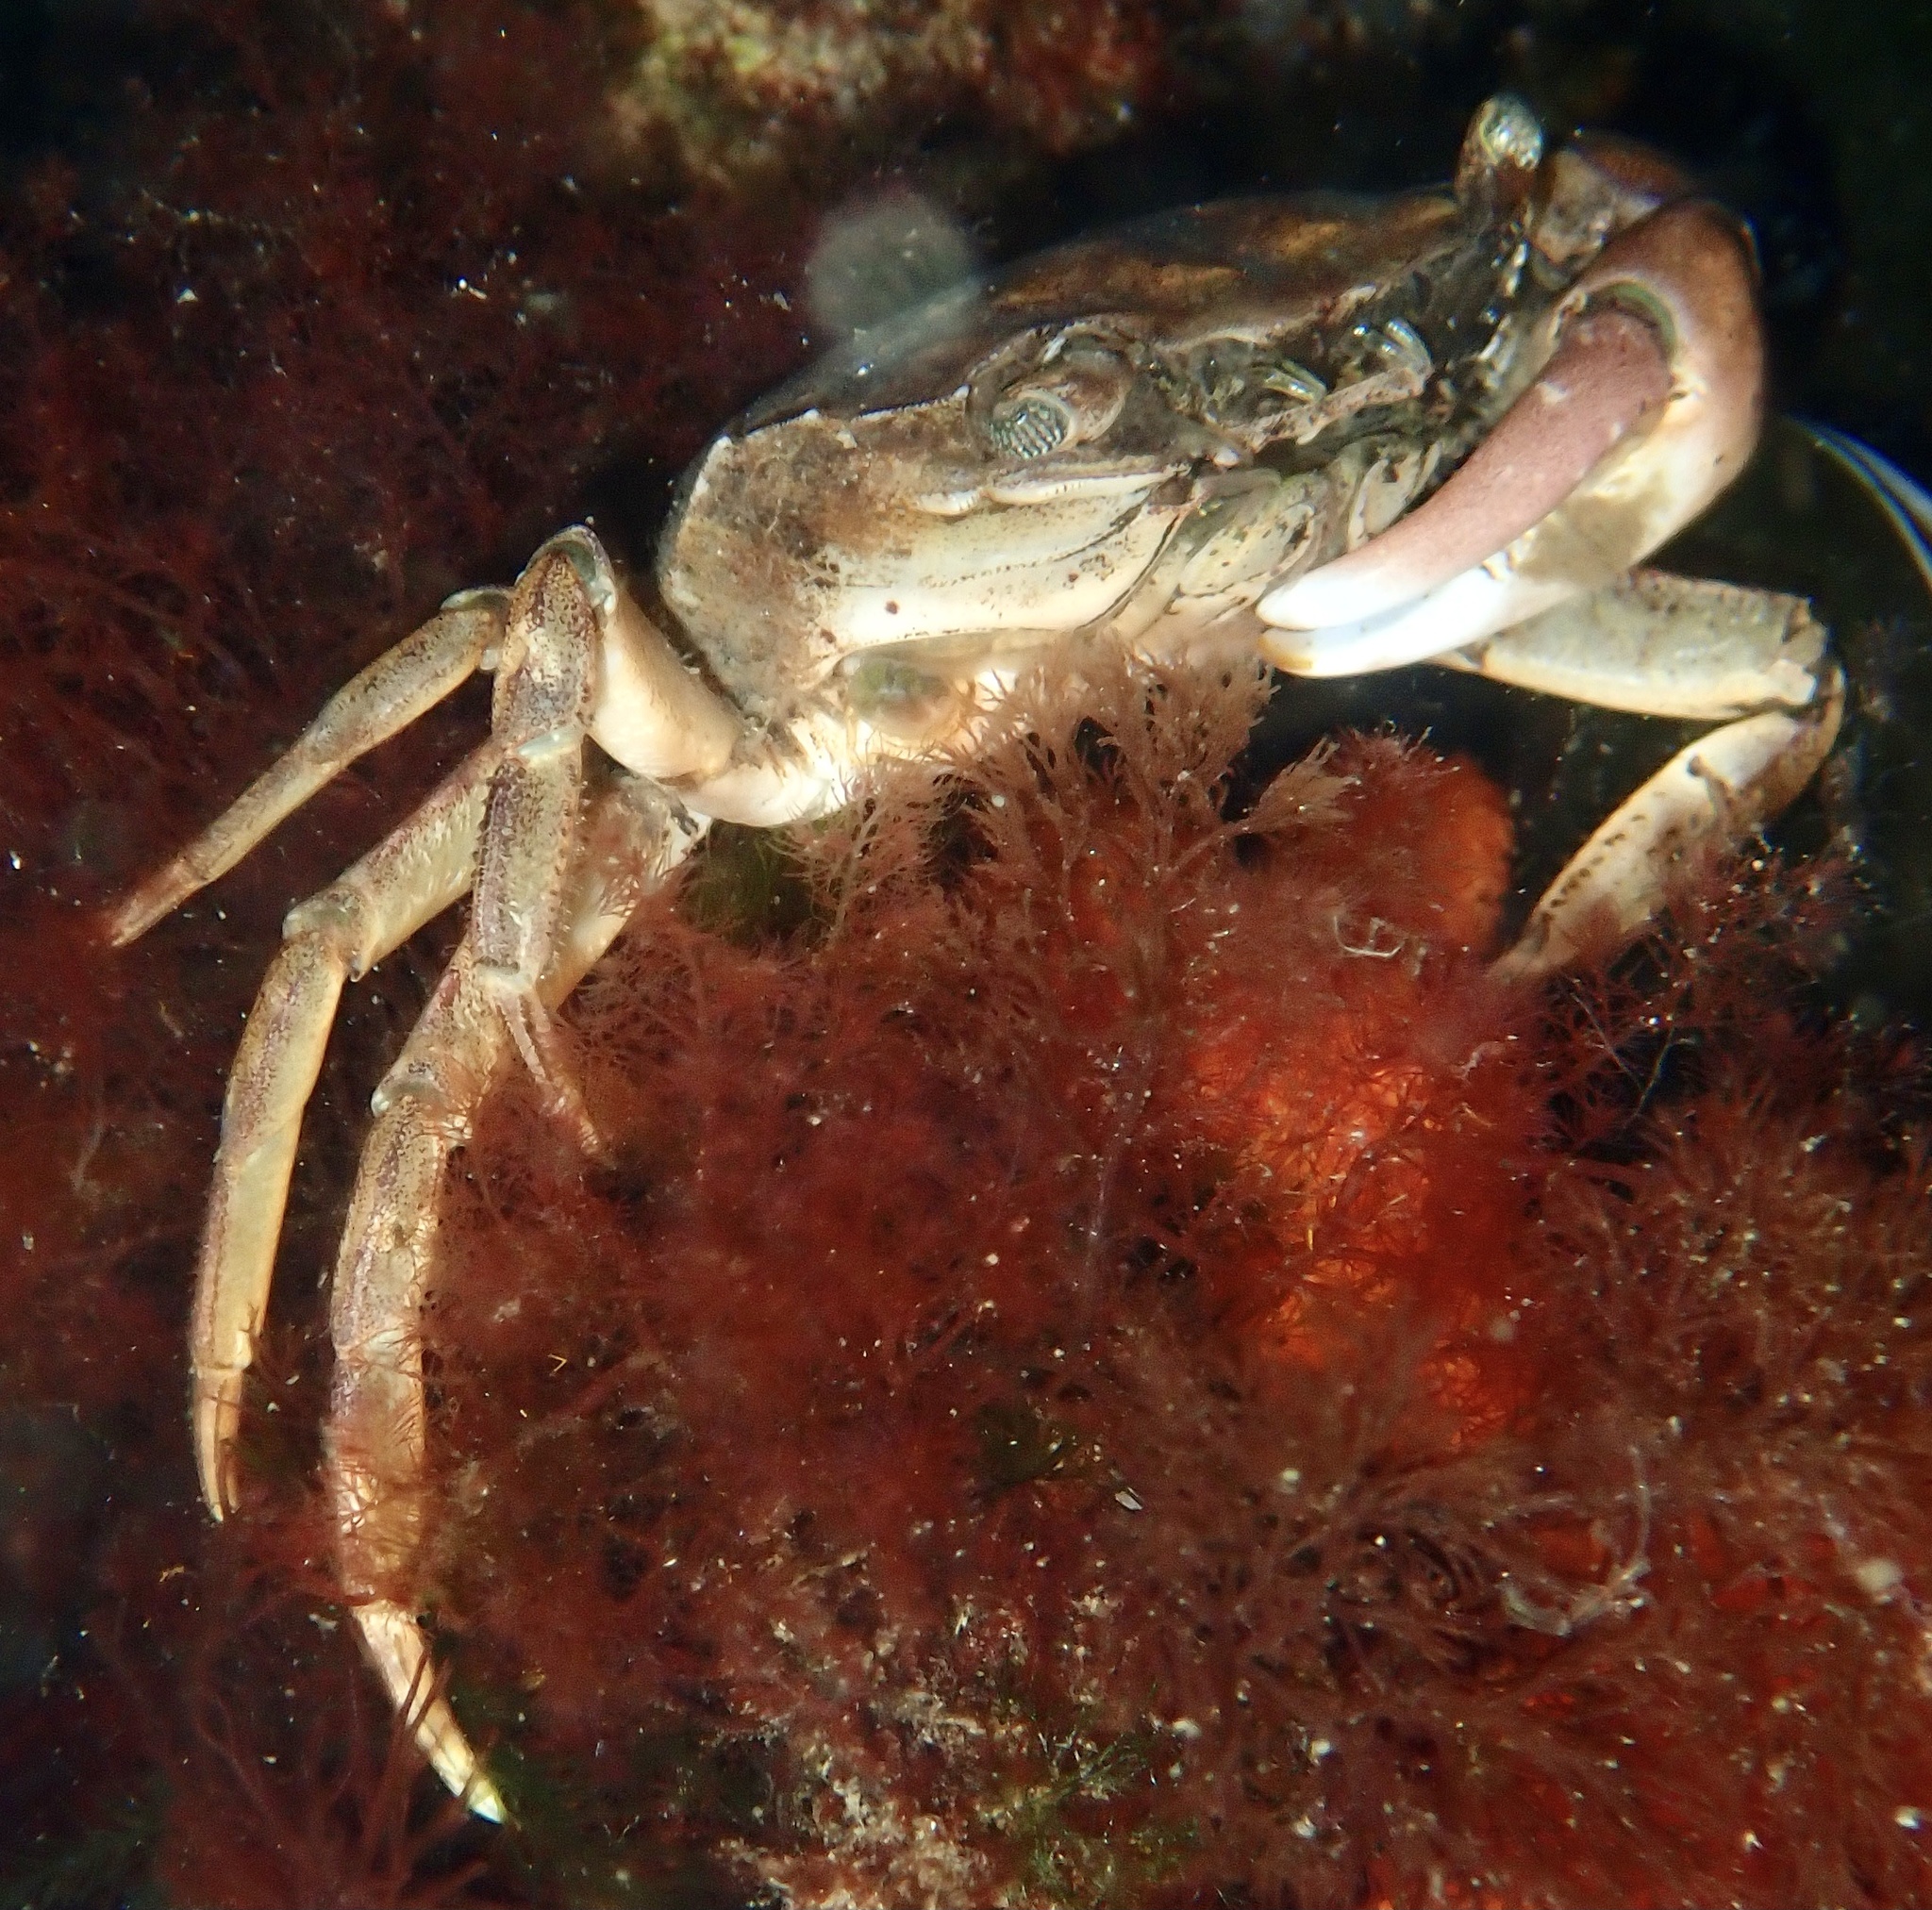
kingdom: Animalia
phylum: Arthropoda
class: Malacostraca
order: Decapoda
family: Carcinidae
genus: Carcinus
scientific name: Carcinus maenas
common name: European green crab
